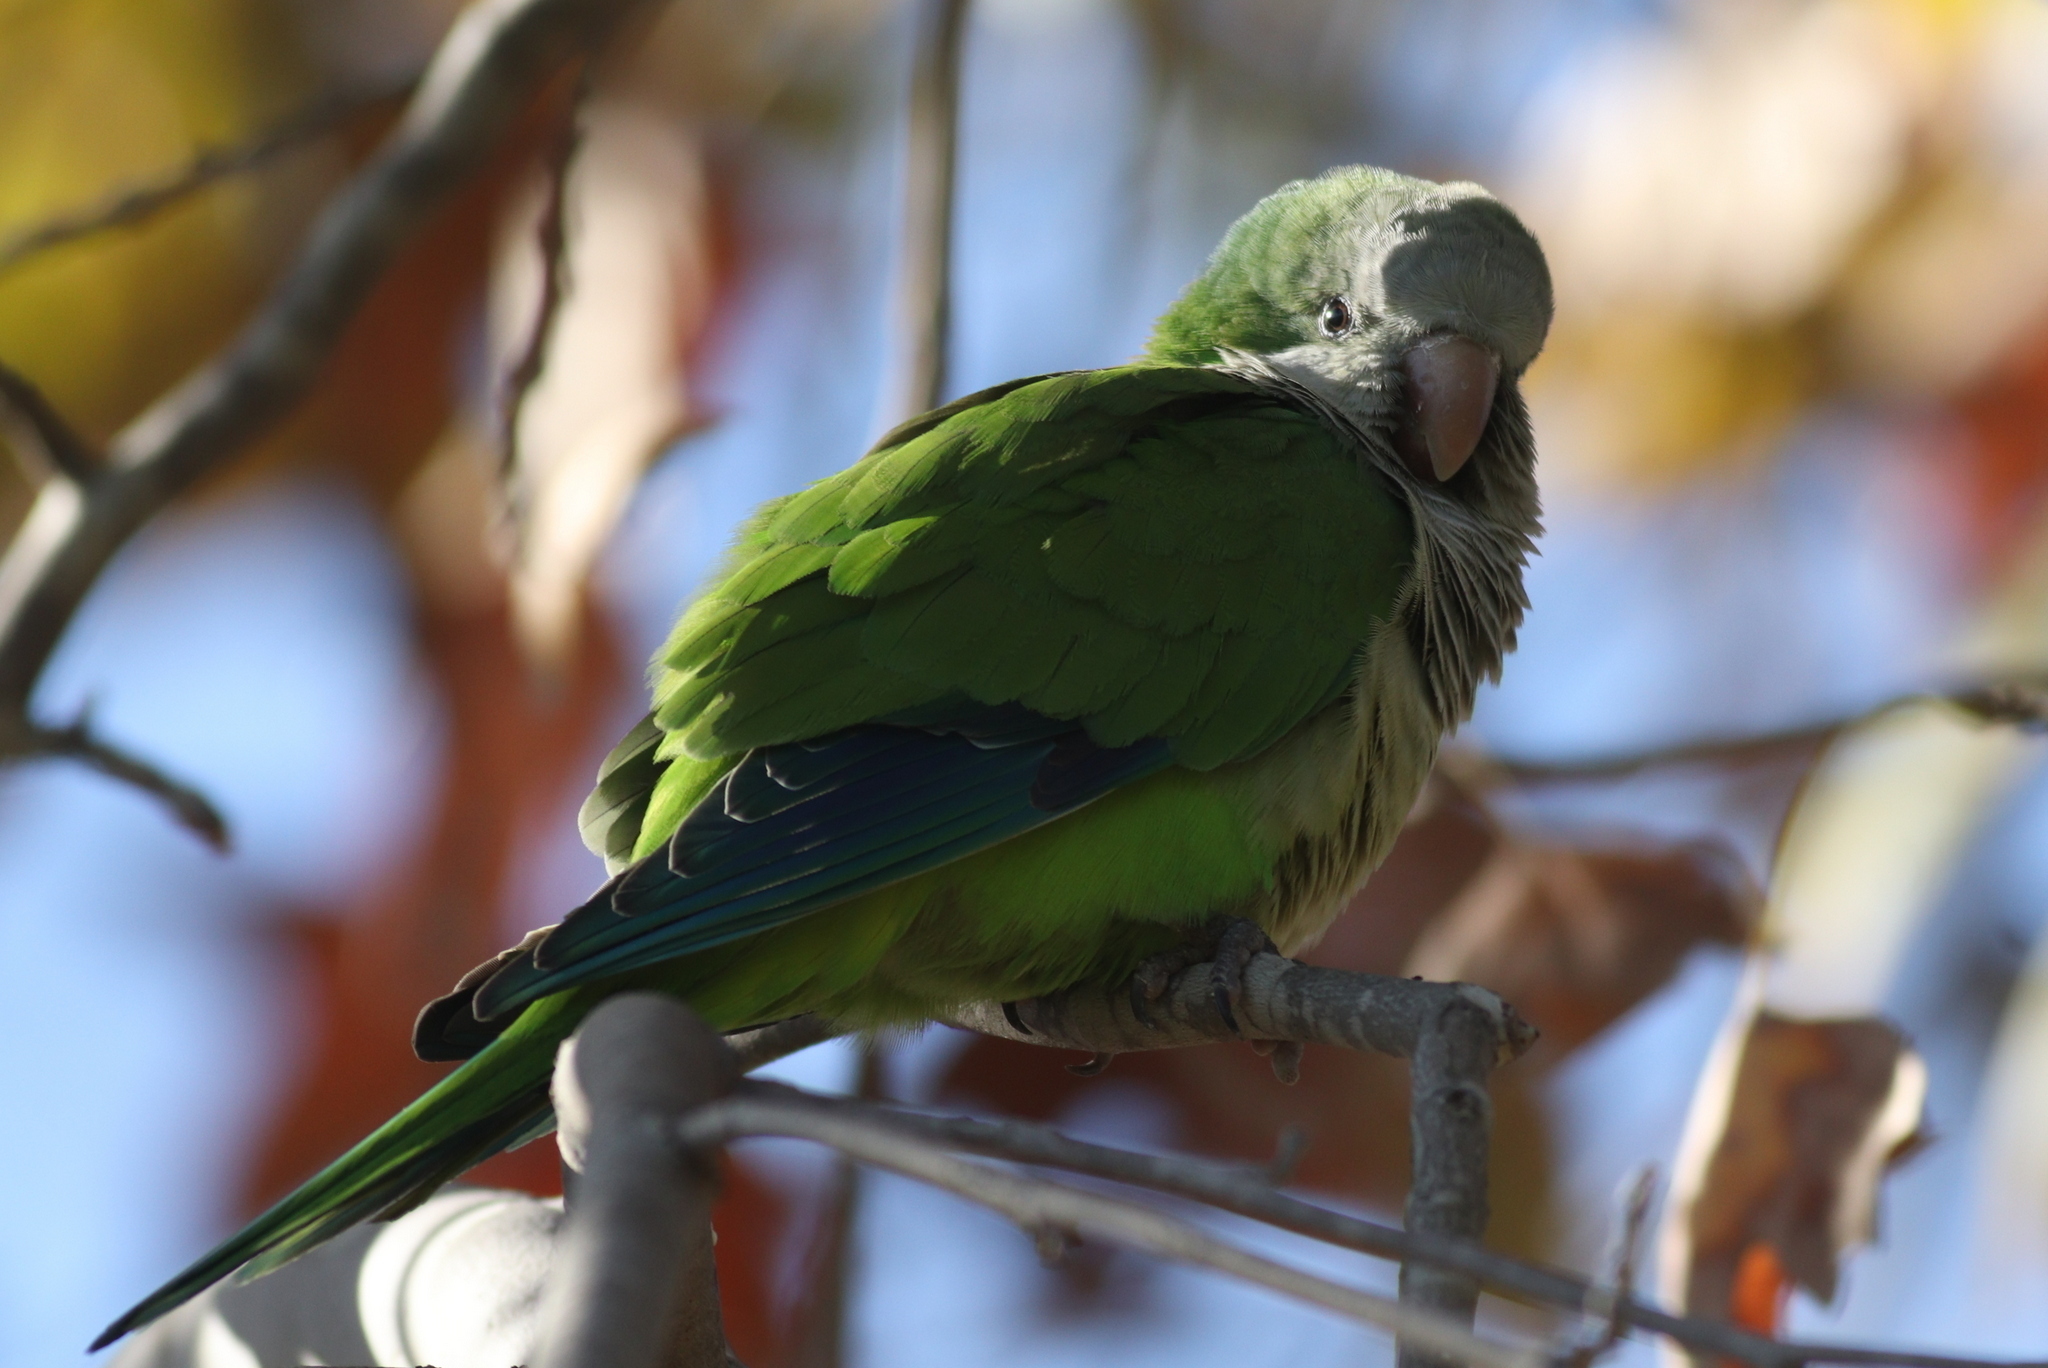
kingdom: Animalia
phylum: Chordata
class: Aves
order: Psittaciformes
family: Psittacidae
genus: Myiopsitta
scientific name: Myiopsitta monachus
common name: Monk parakeet
